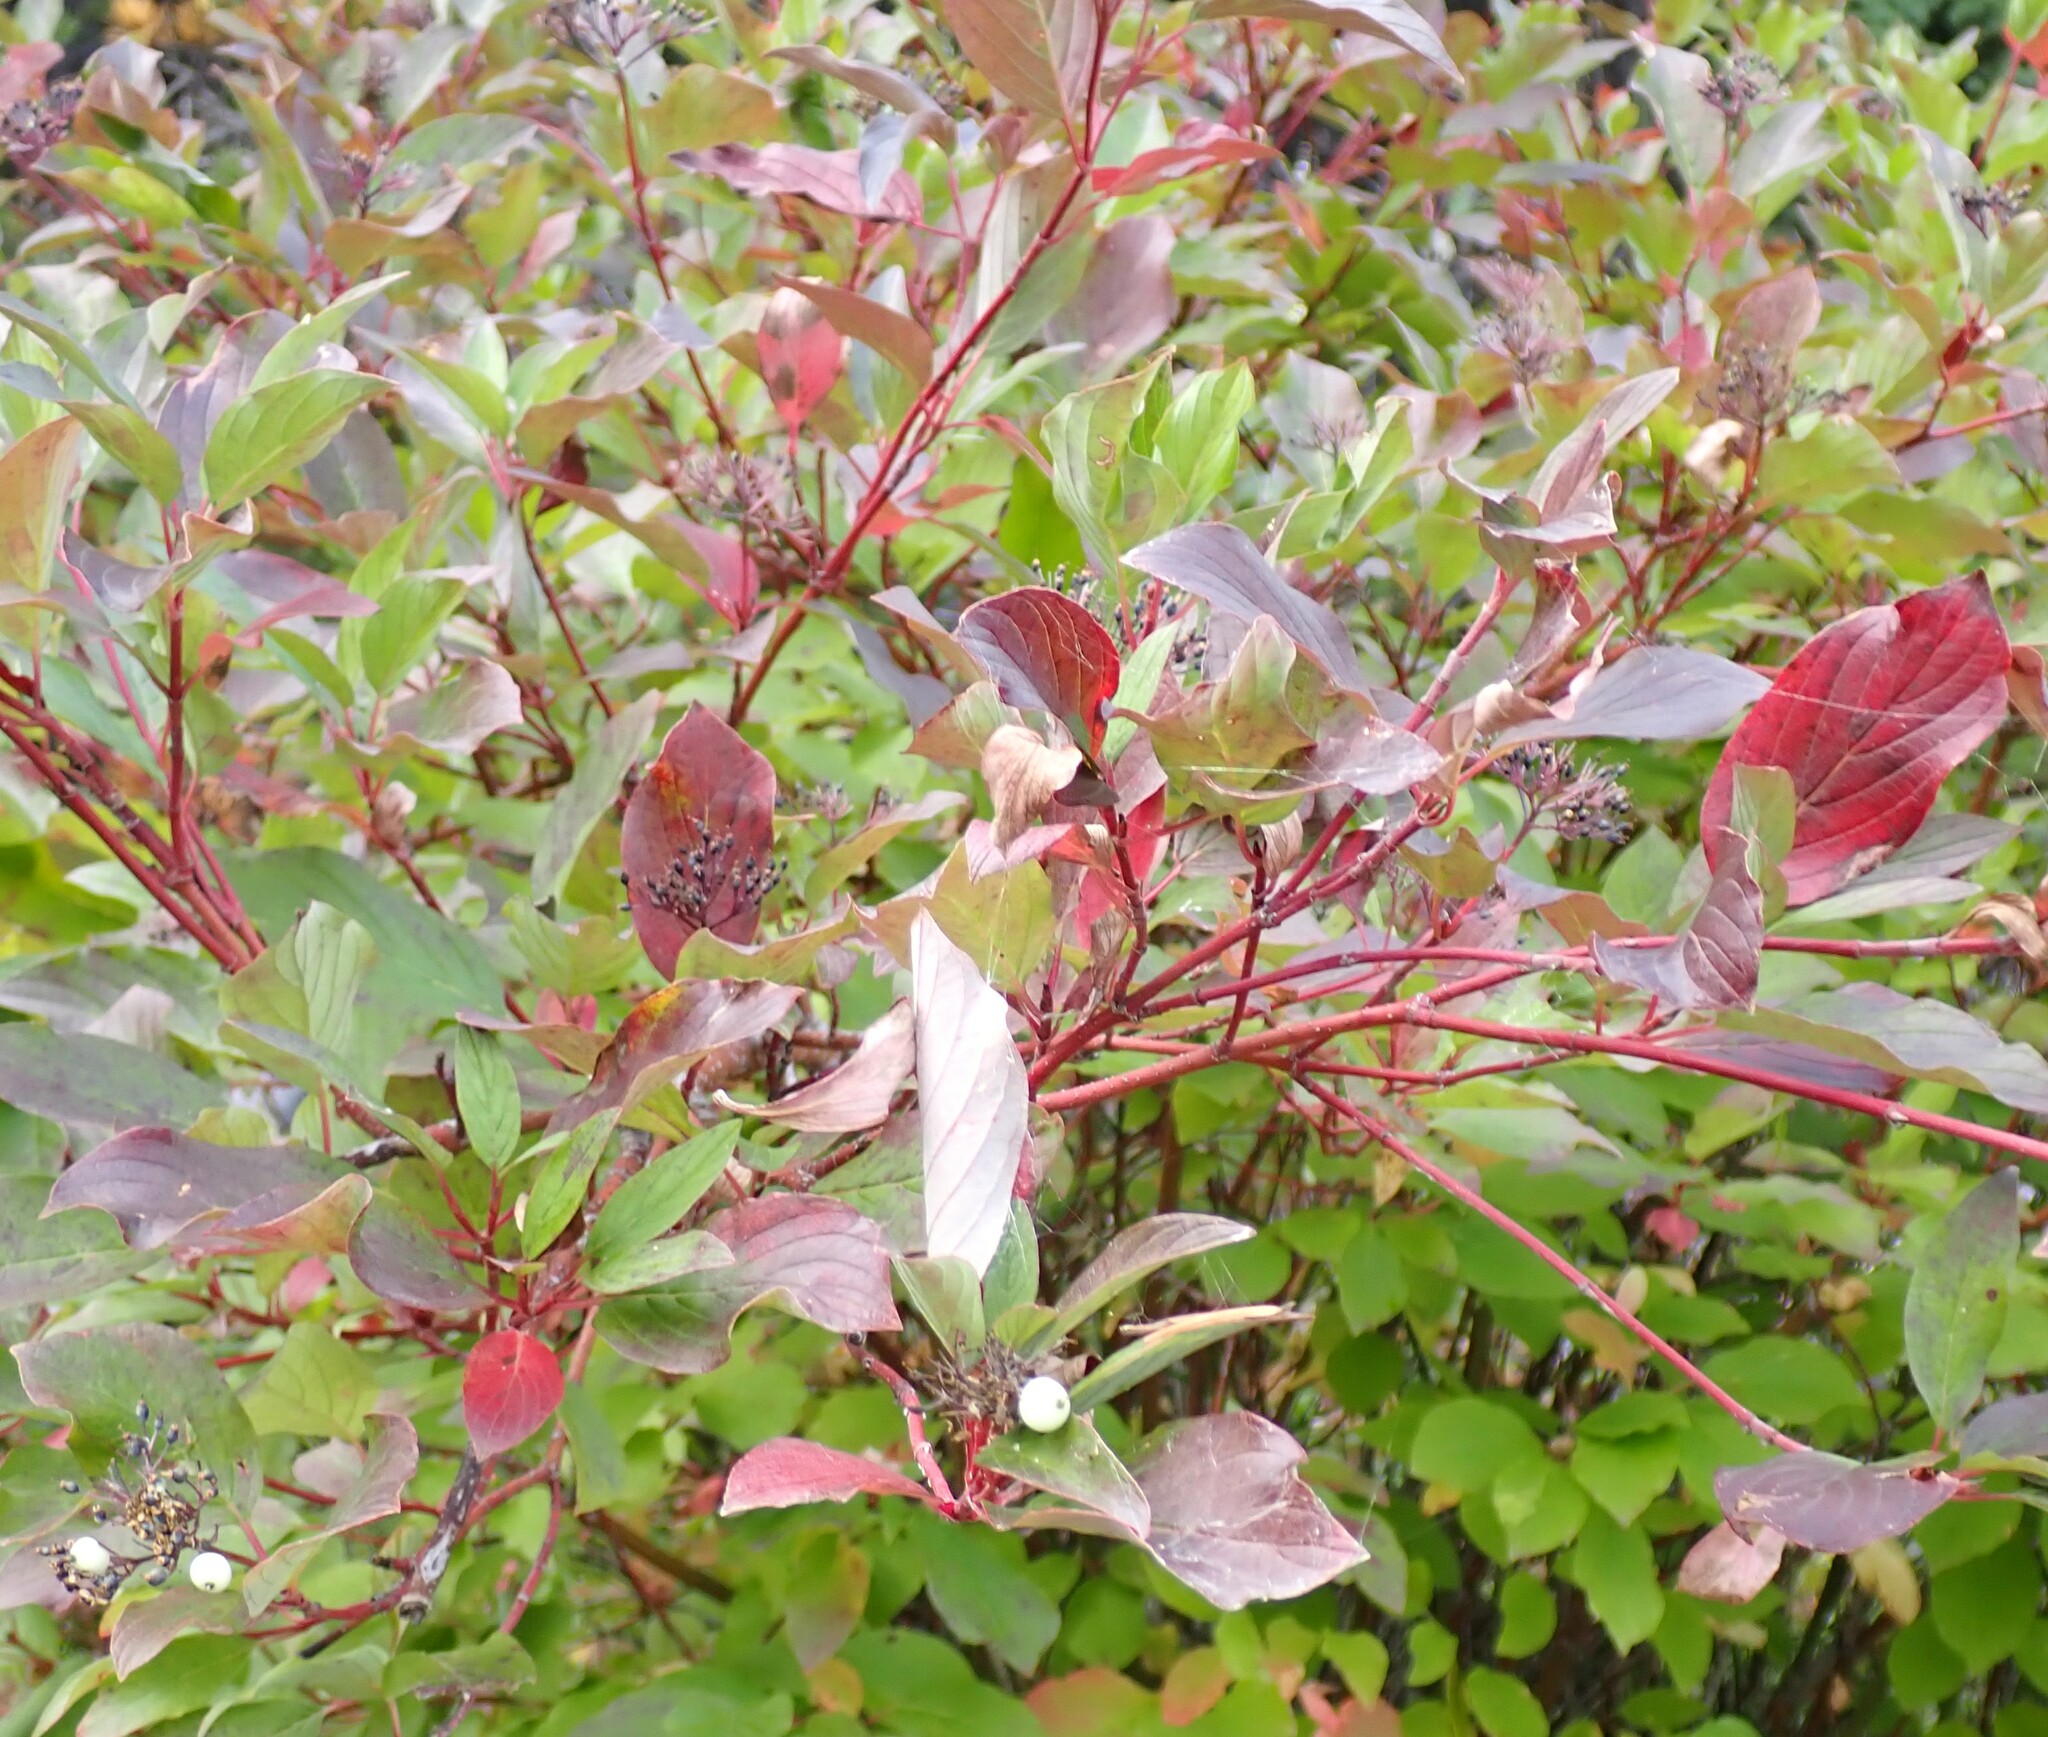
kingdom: Plantae
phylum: Tracheophyta
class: Magnoliopsida
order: Cornales
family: Cornaceae
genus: Cornus
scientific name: Cornus sericea
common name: Red-osier dogwood
